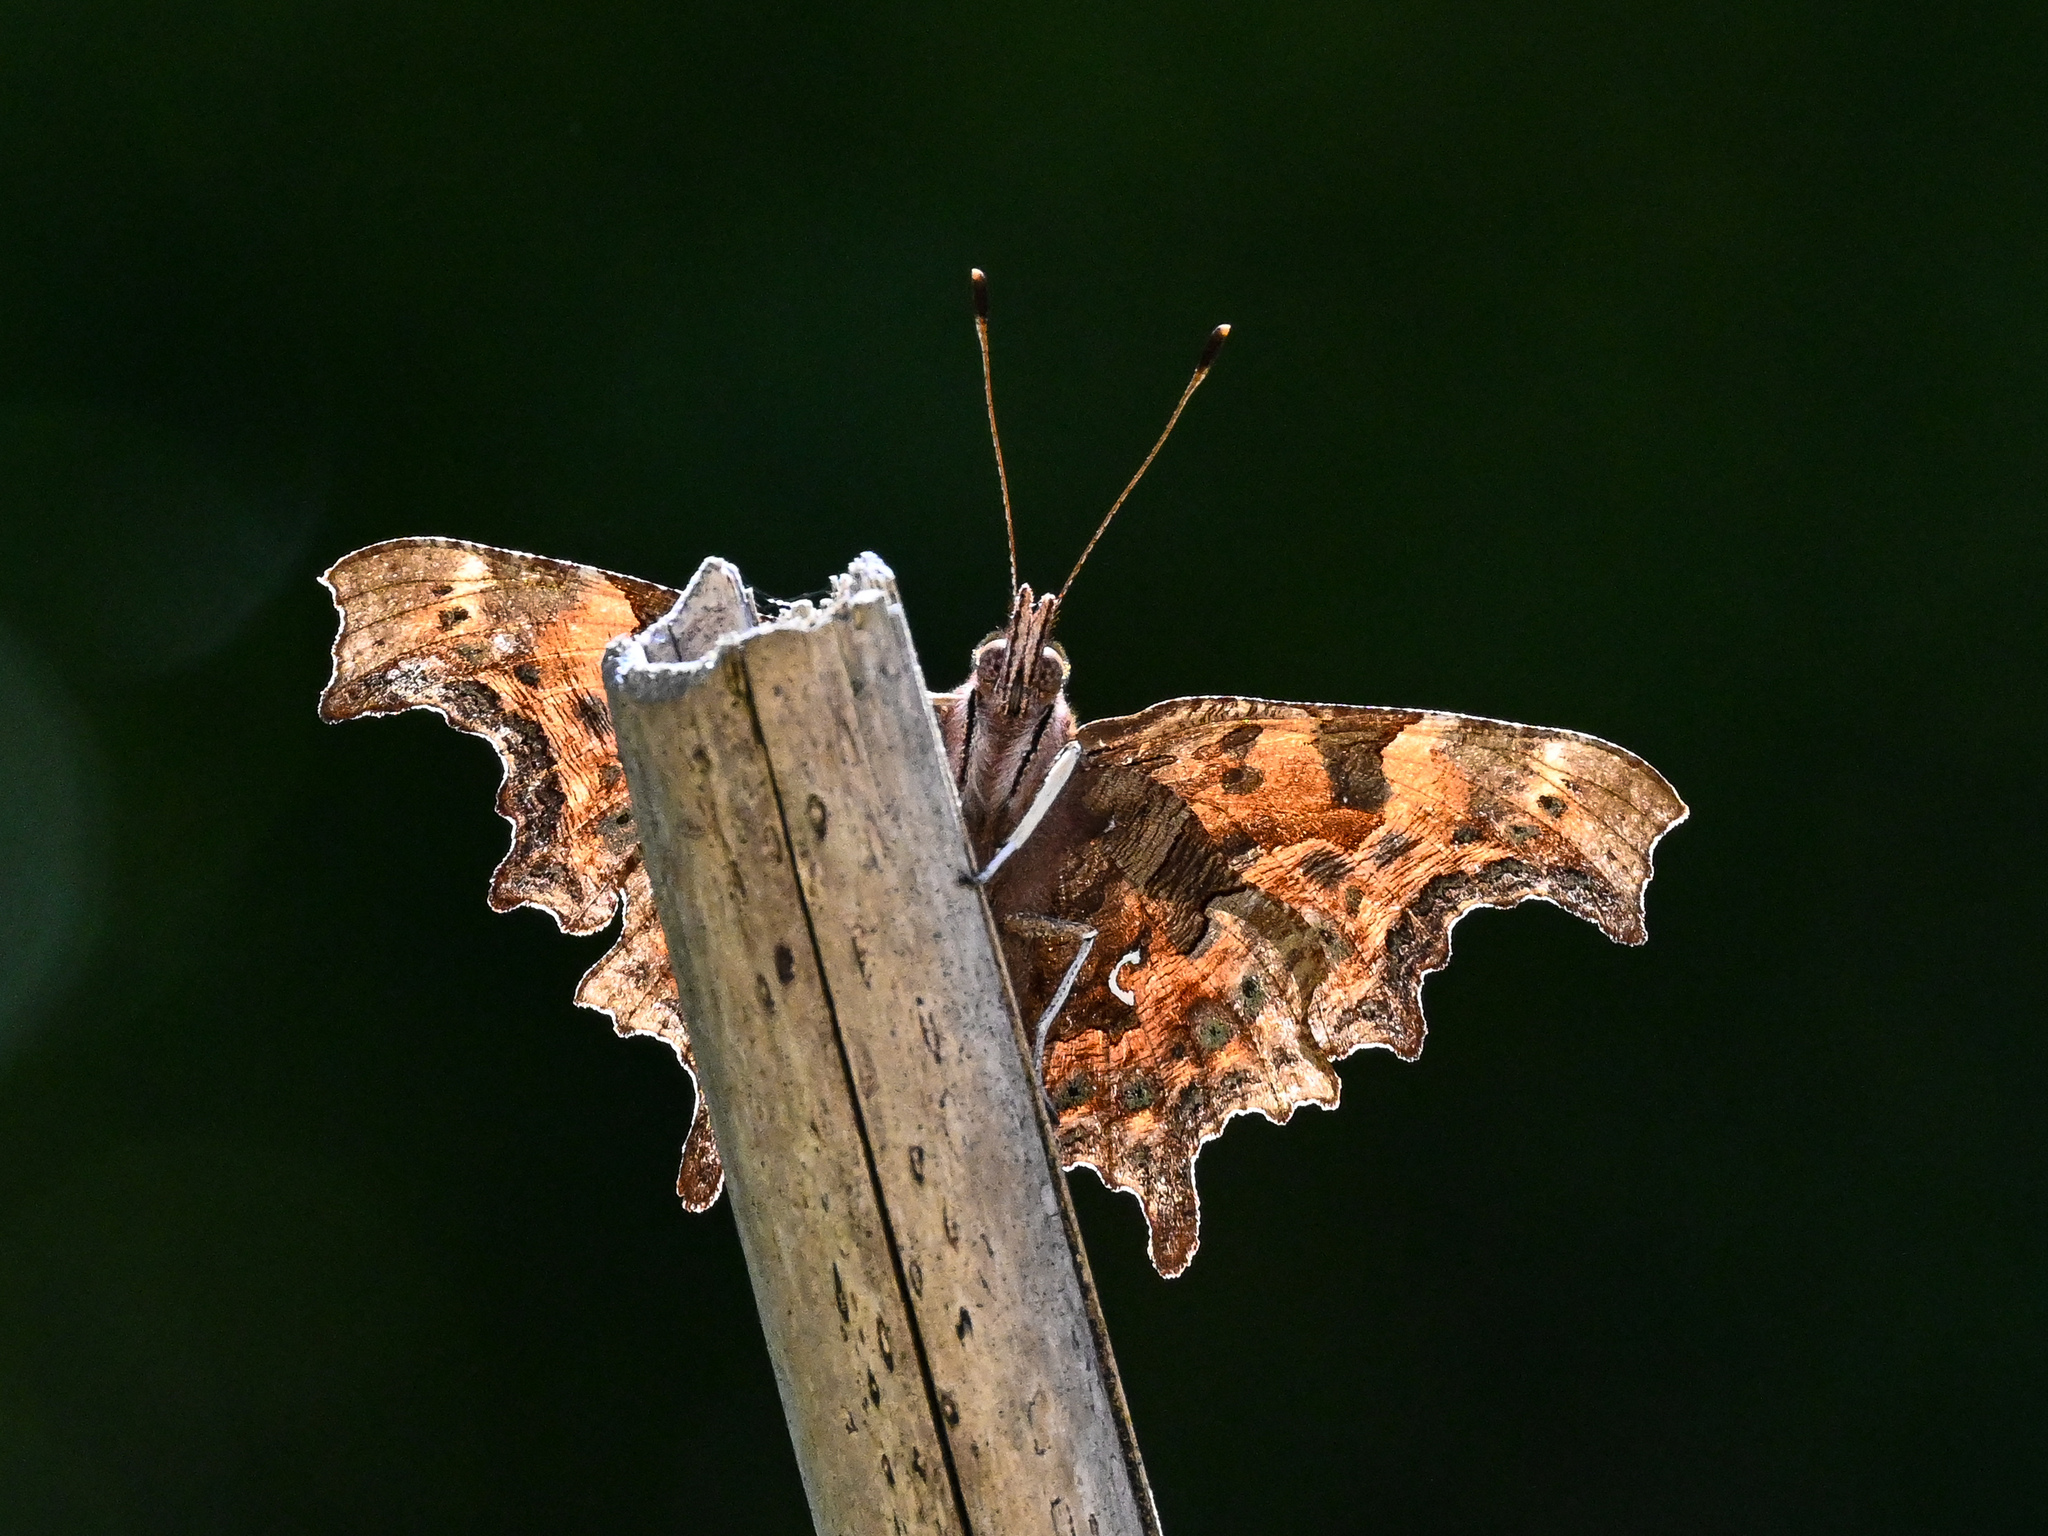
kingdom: Animalia
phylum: Arthropoda
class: Insecta
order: Lepidoptera
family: Nymphalidae
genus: Polygonia
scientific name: Polygonia c-album
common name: Comma
